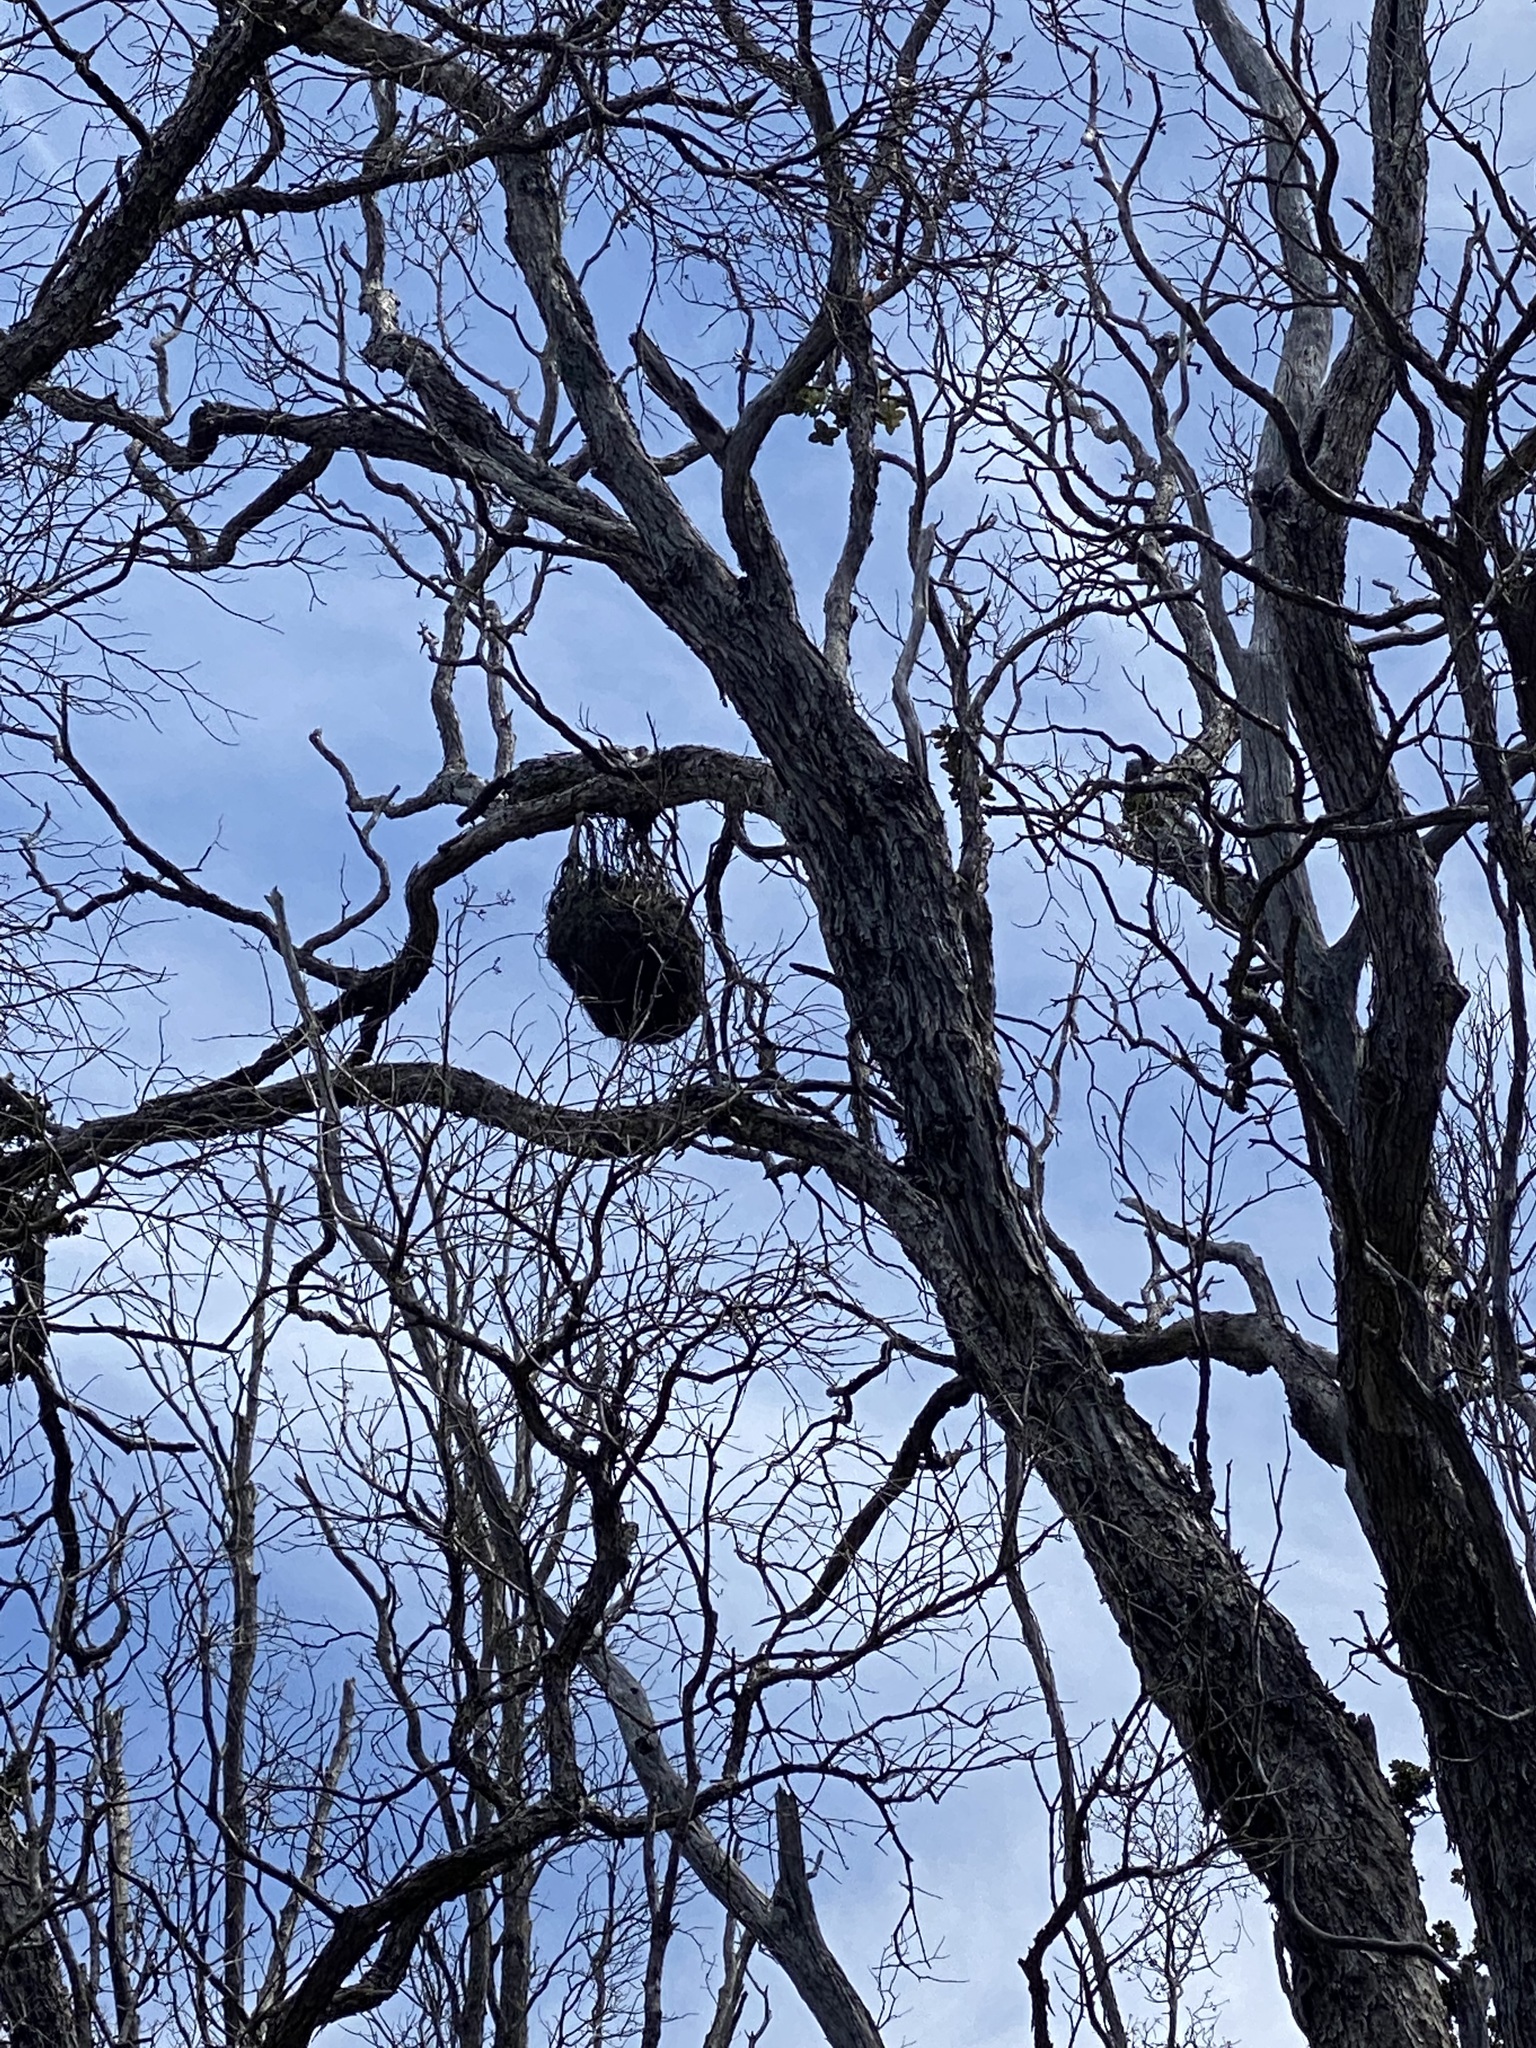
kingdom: Plantae
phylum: Tracheophyta
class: Magnoliopsida
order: Myrtales
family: Myrtaceae
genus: Metrosideros
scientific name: Metrosideros polymorpha
